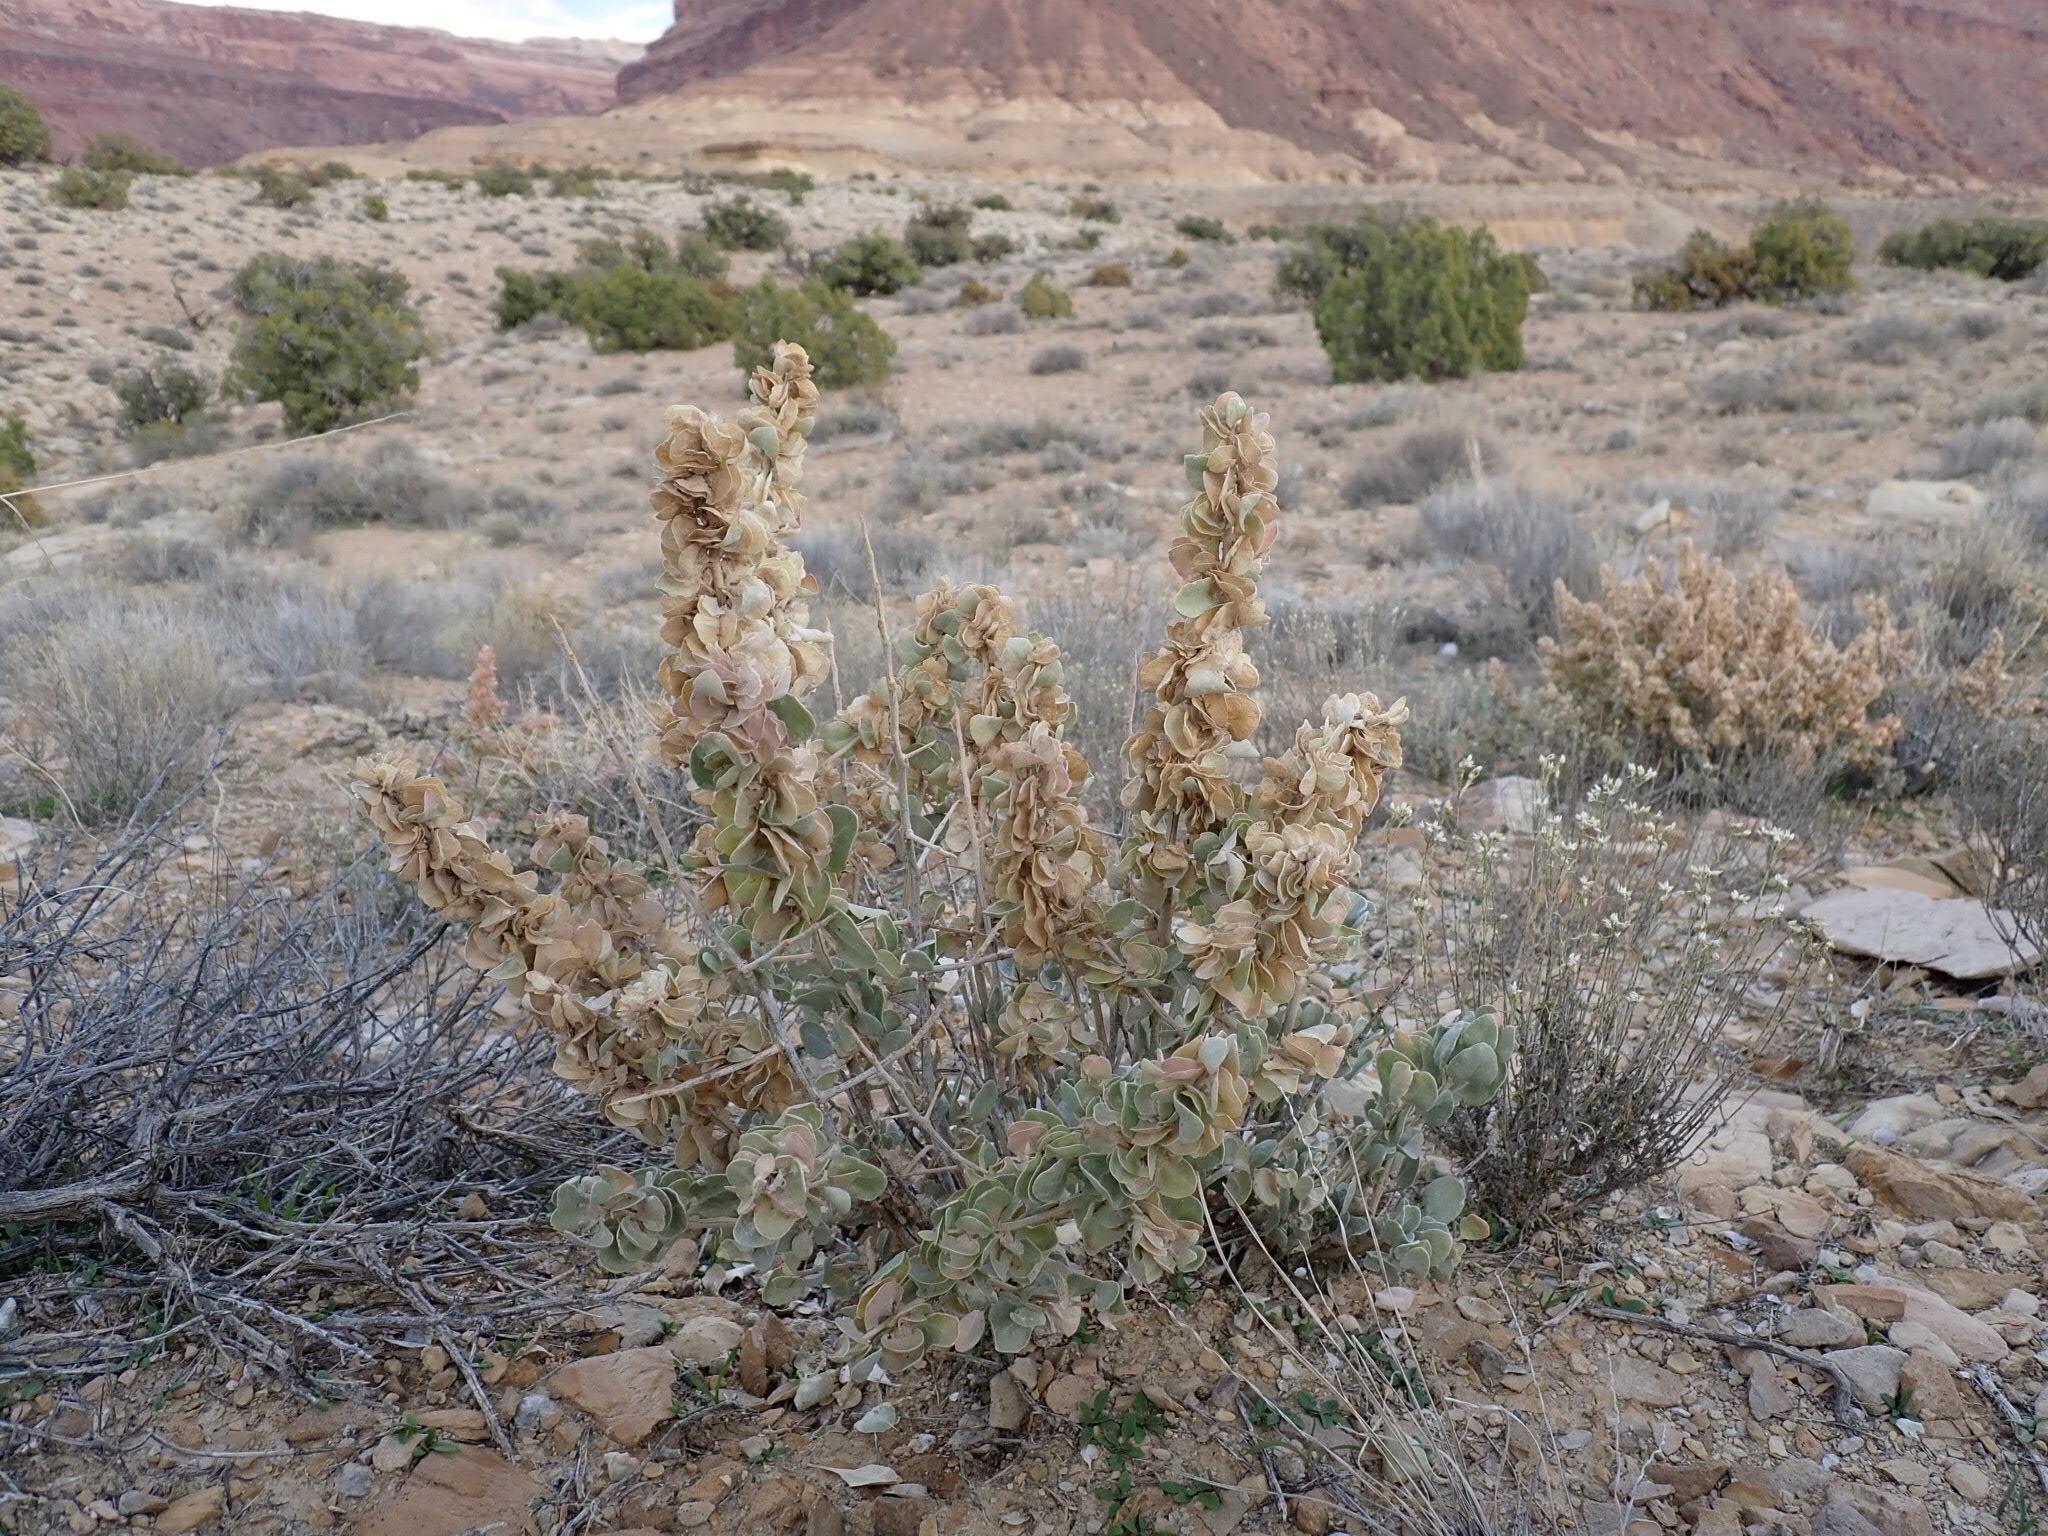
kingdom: Plantae
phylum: Tracheophyta
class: Magnoliopsida
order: Caryophyllales
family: Amaranthaceae
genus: Atriplex
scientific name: Atriplex confertifolia
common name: Shadscale
